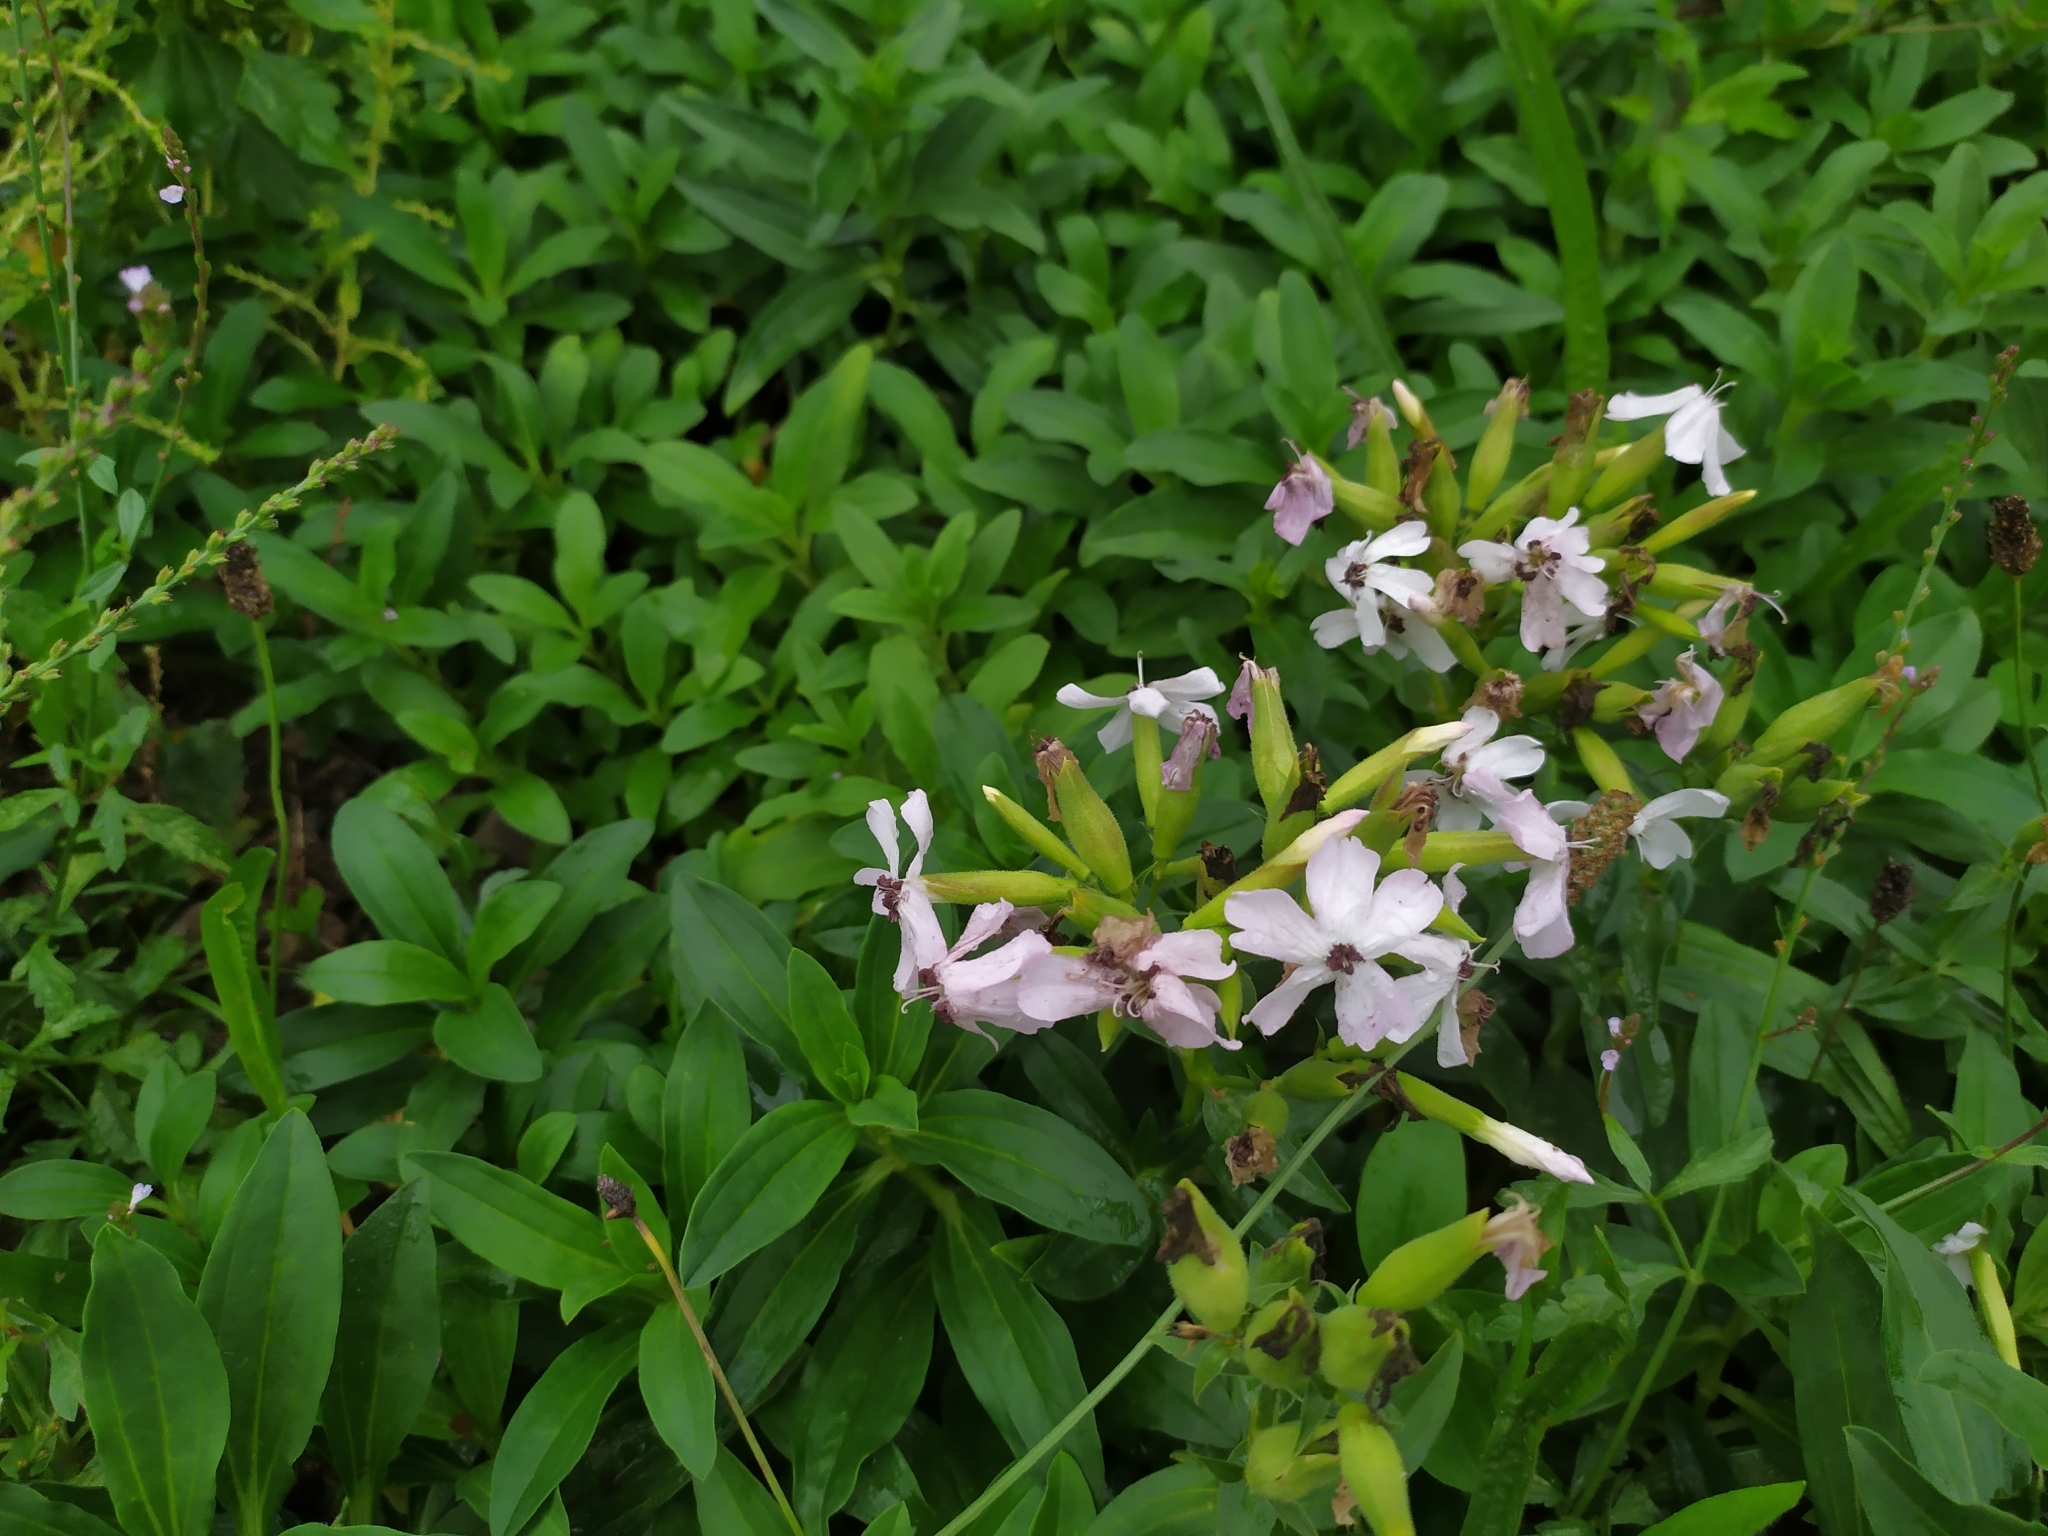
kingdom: Fungi
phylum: Basidiomycota
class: Microbotryomycetes
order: Microbotryales
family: Microbotryaceae
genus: Microbotryum
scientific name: Microbotryum saponariae
